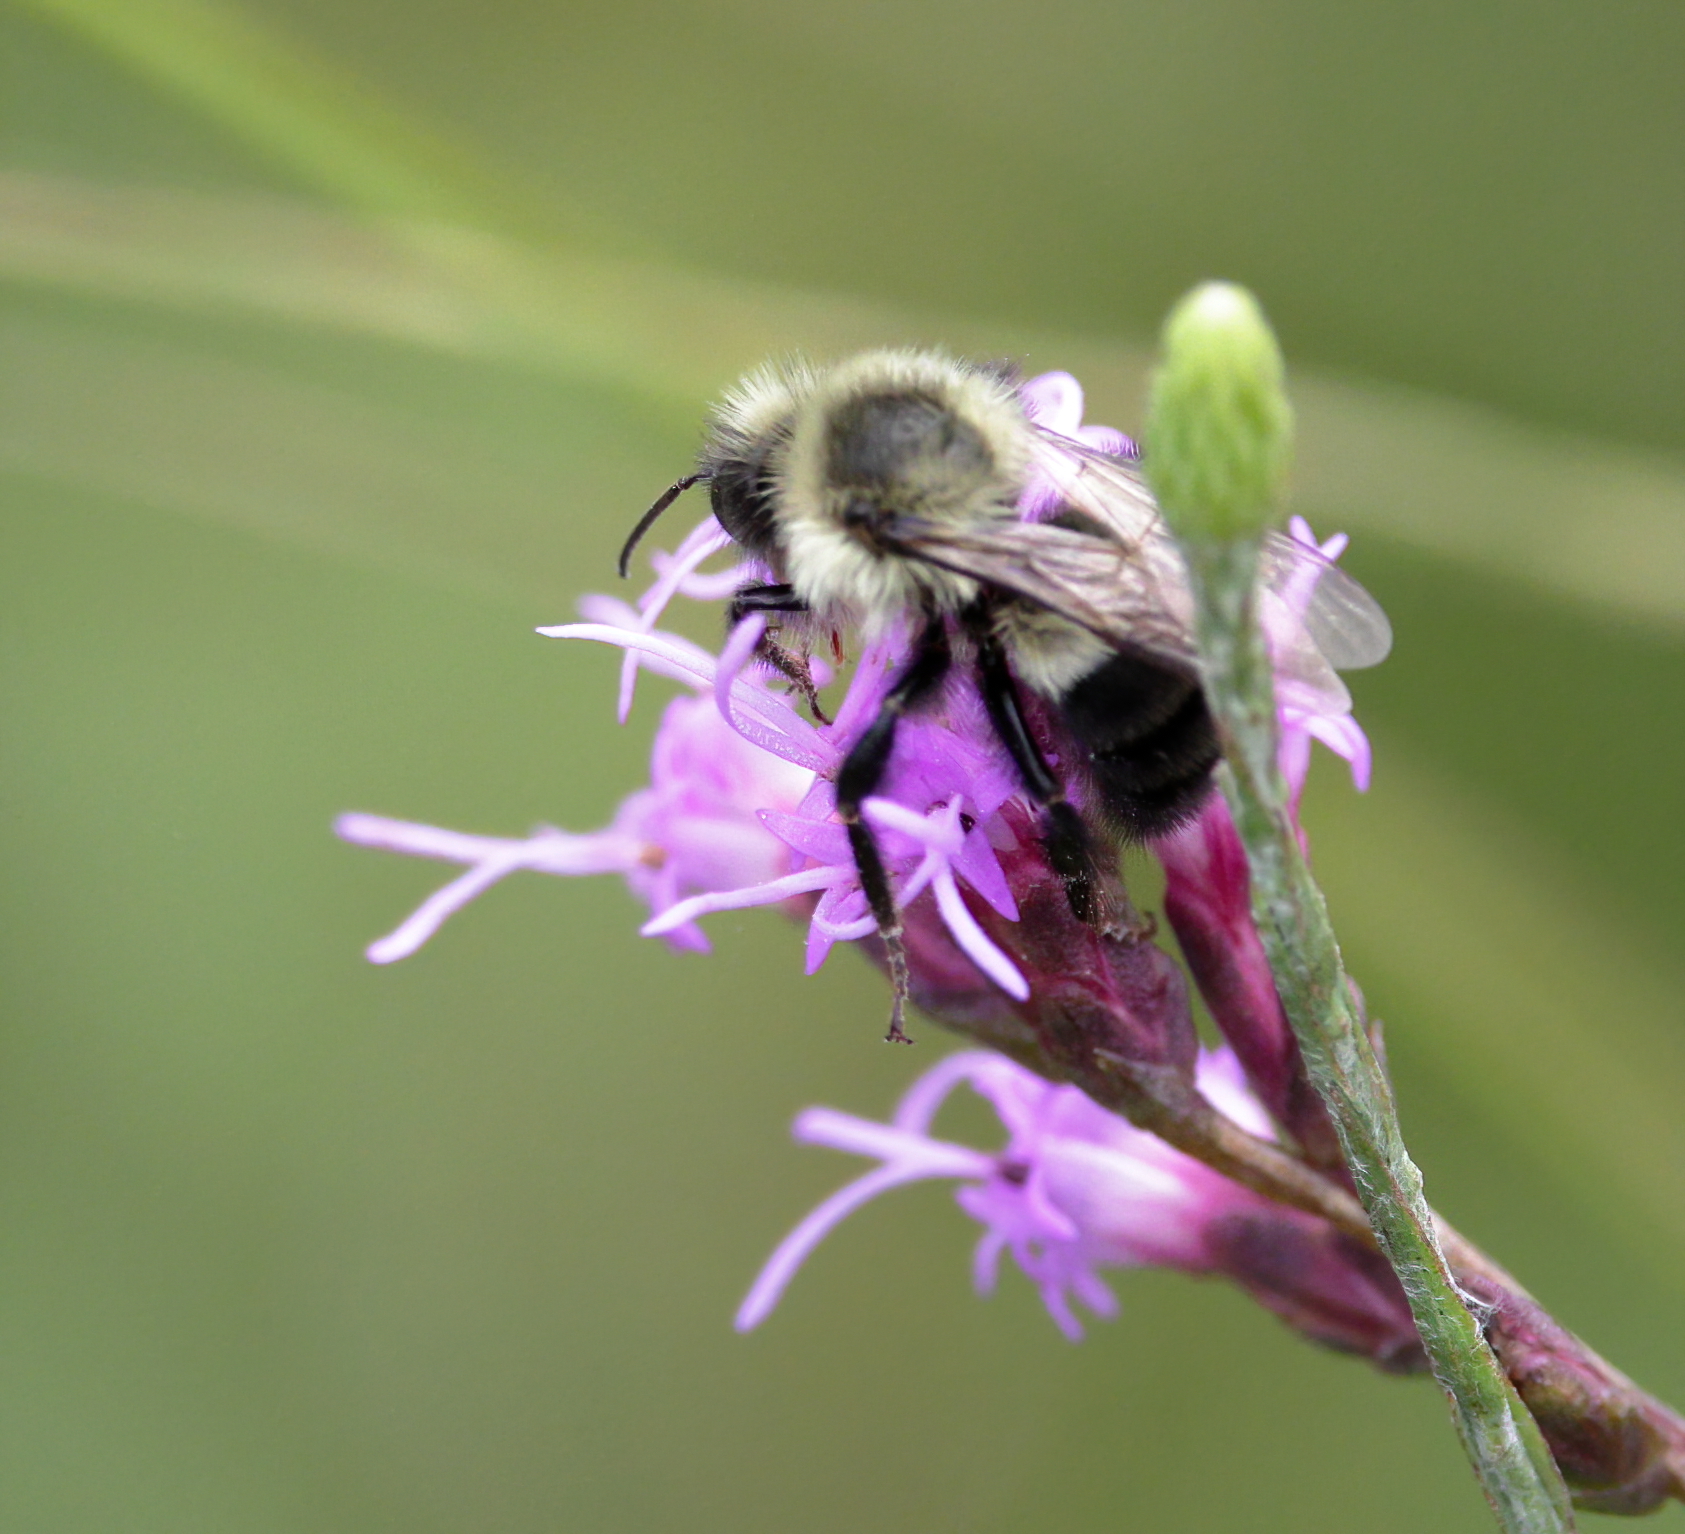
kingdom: Animalia
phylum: Arthropoda
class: Insecta
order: Hymenoptera
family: Apidae
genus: Bombus
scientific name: Bombus impatiens
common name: Common eastern bumble bee
